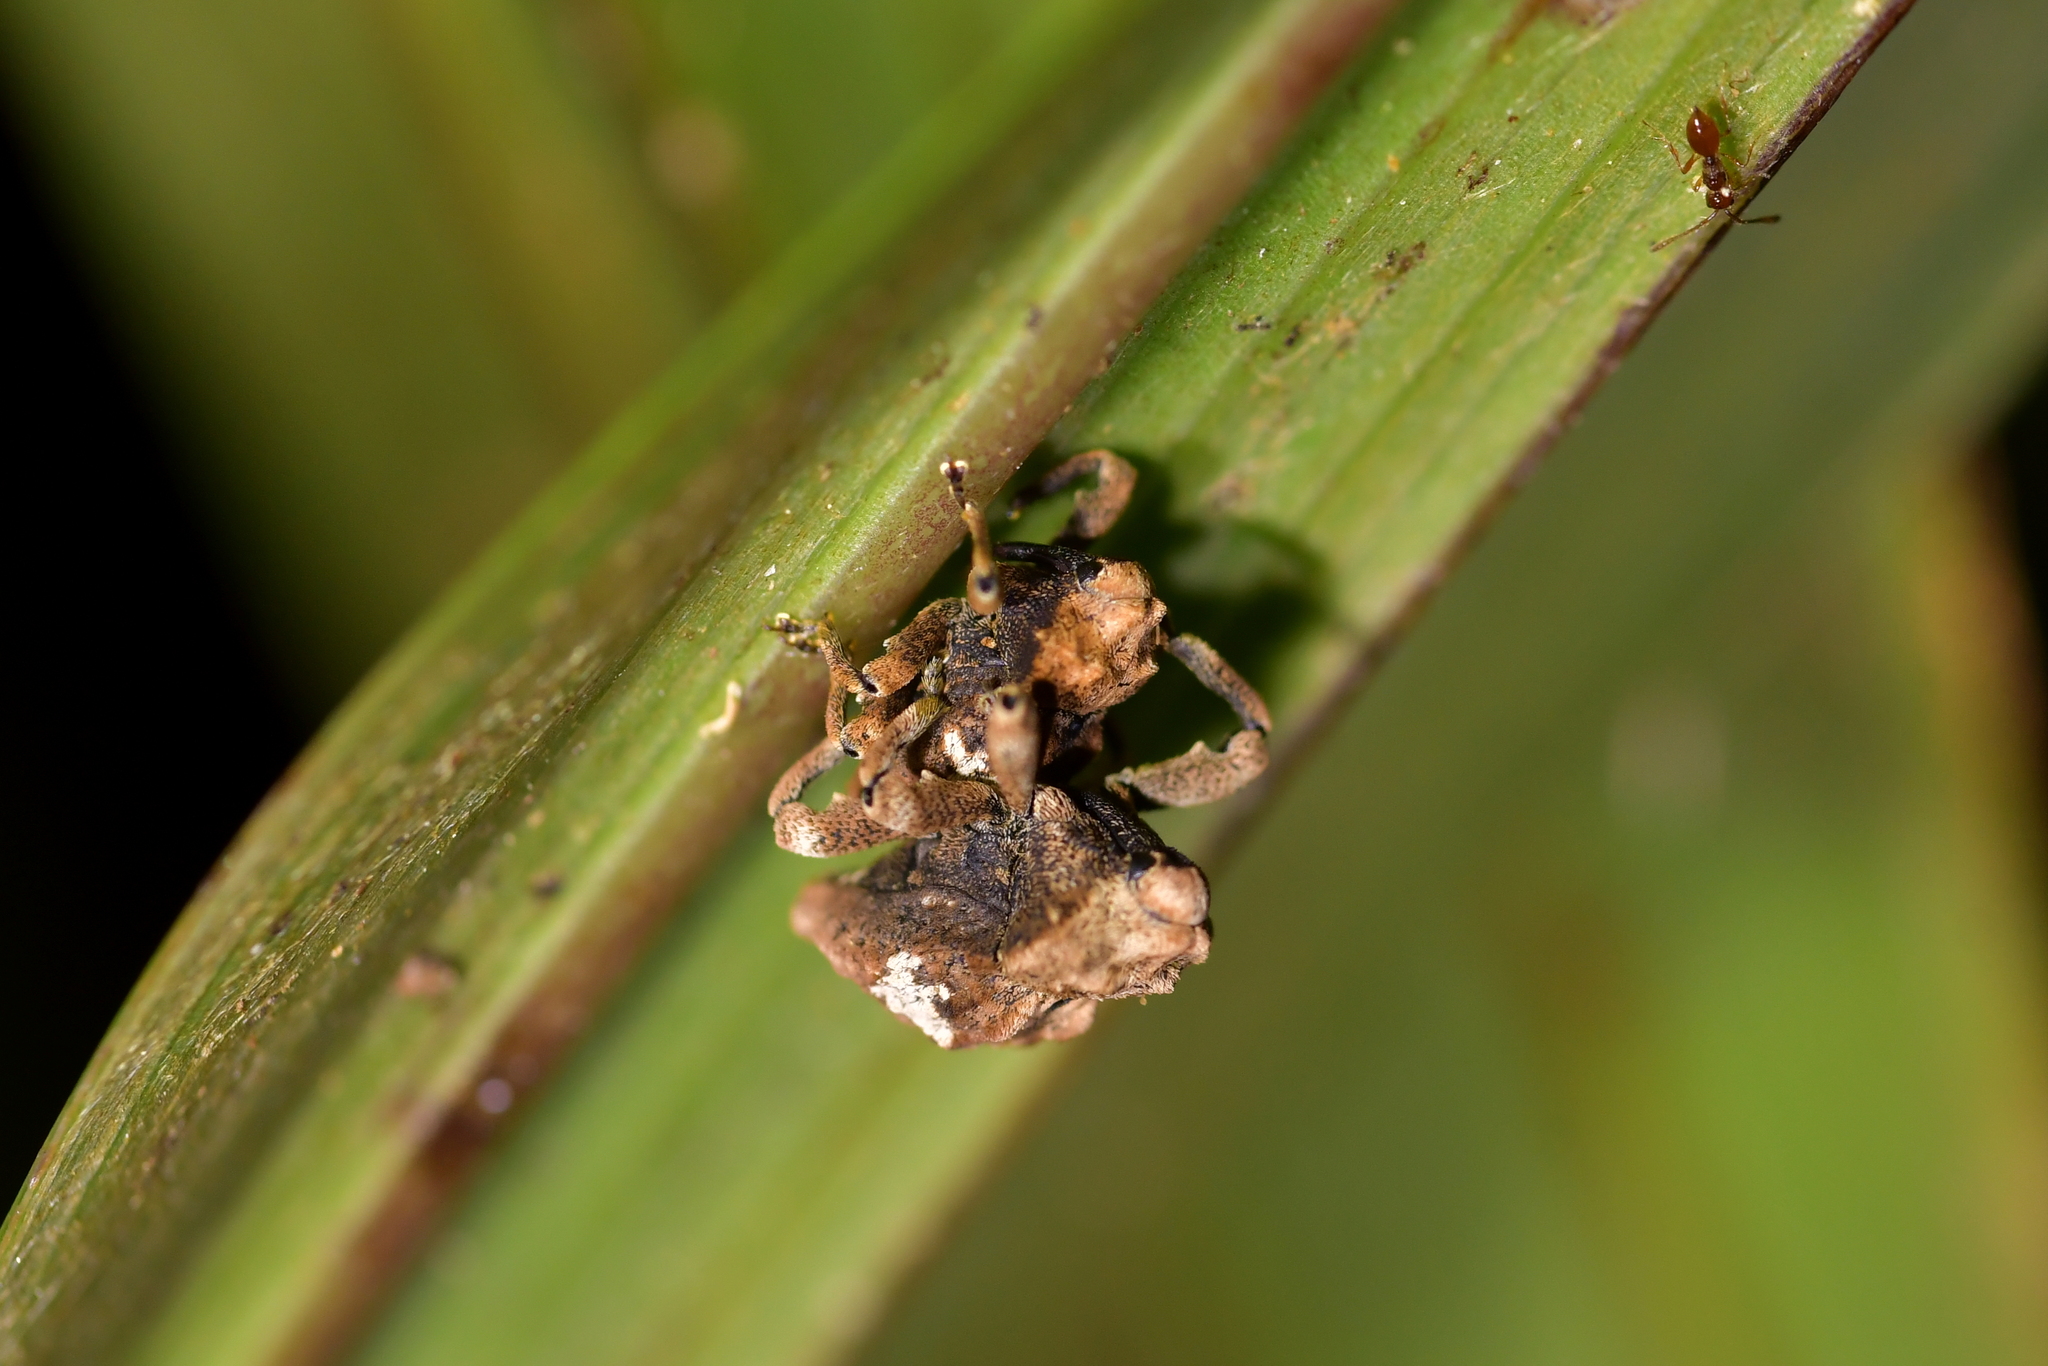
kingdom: Animalia
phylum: Arthropoda
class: Insecta
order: Coleoptera
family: Curculionidae
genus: Sympedius
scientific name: Sympedius bufo
